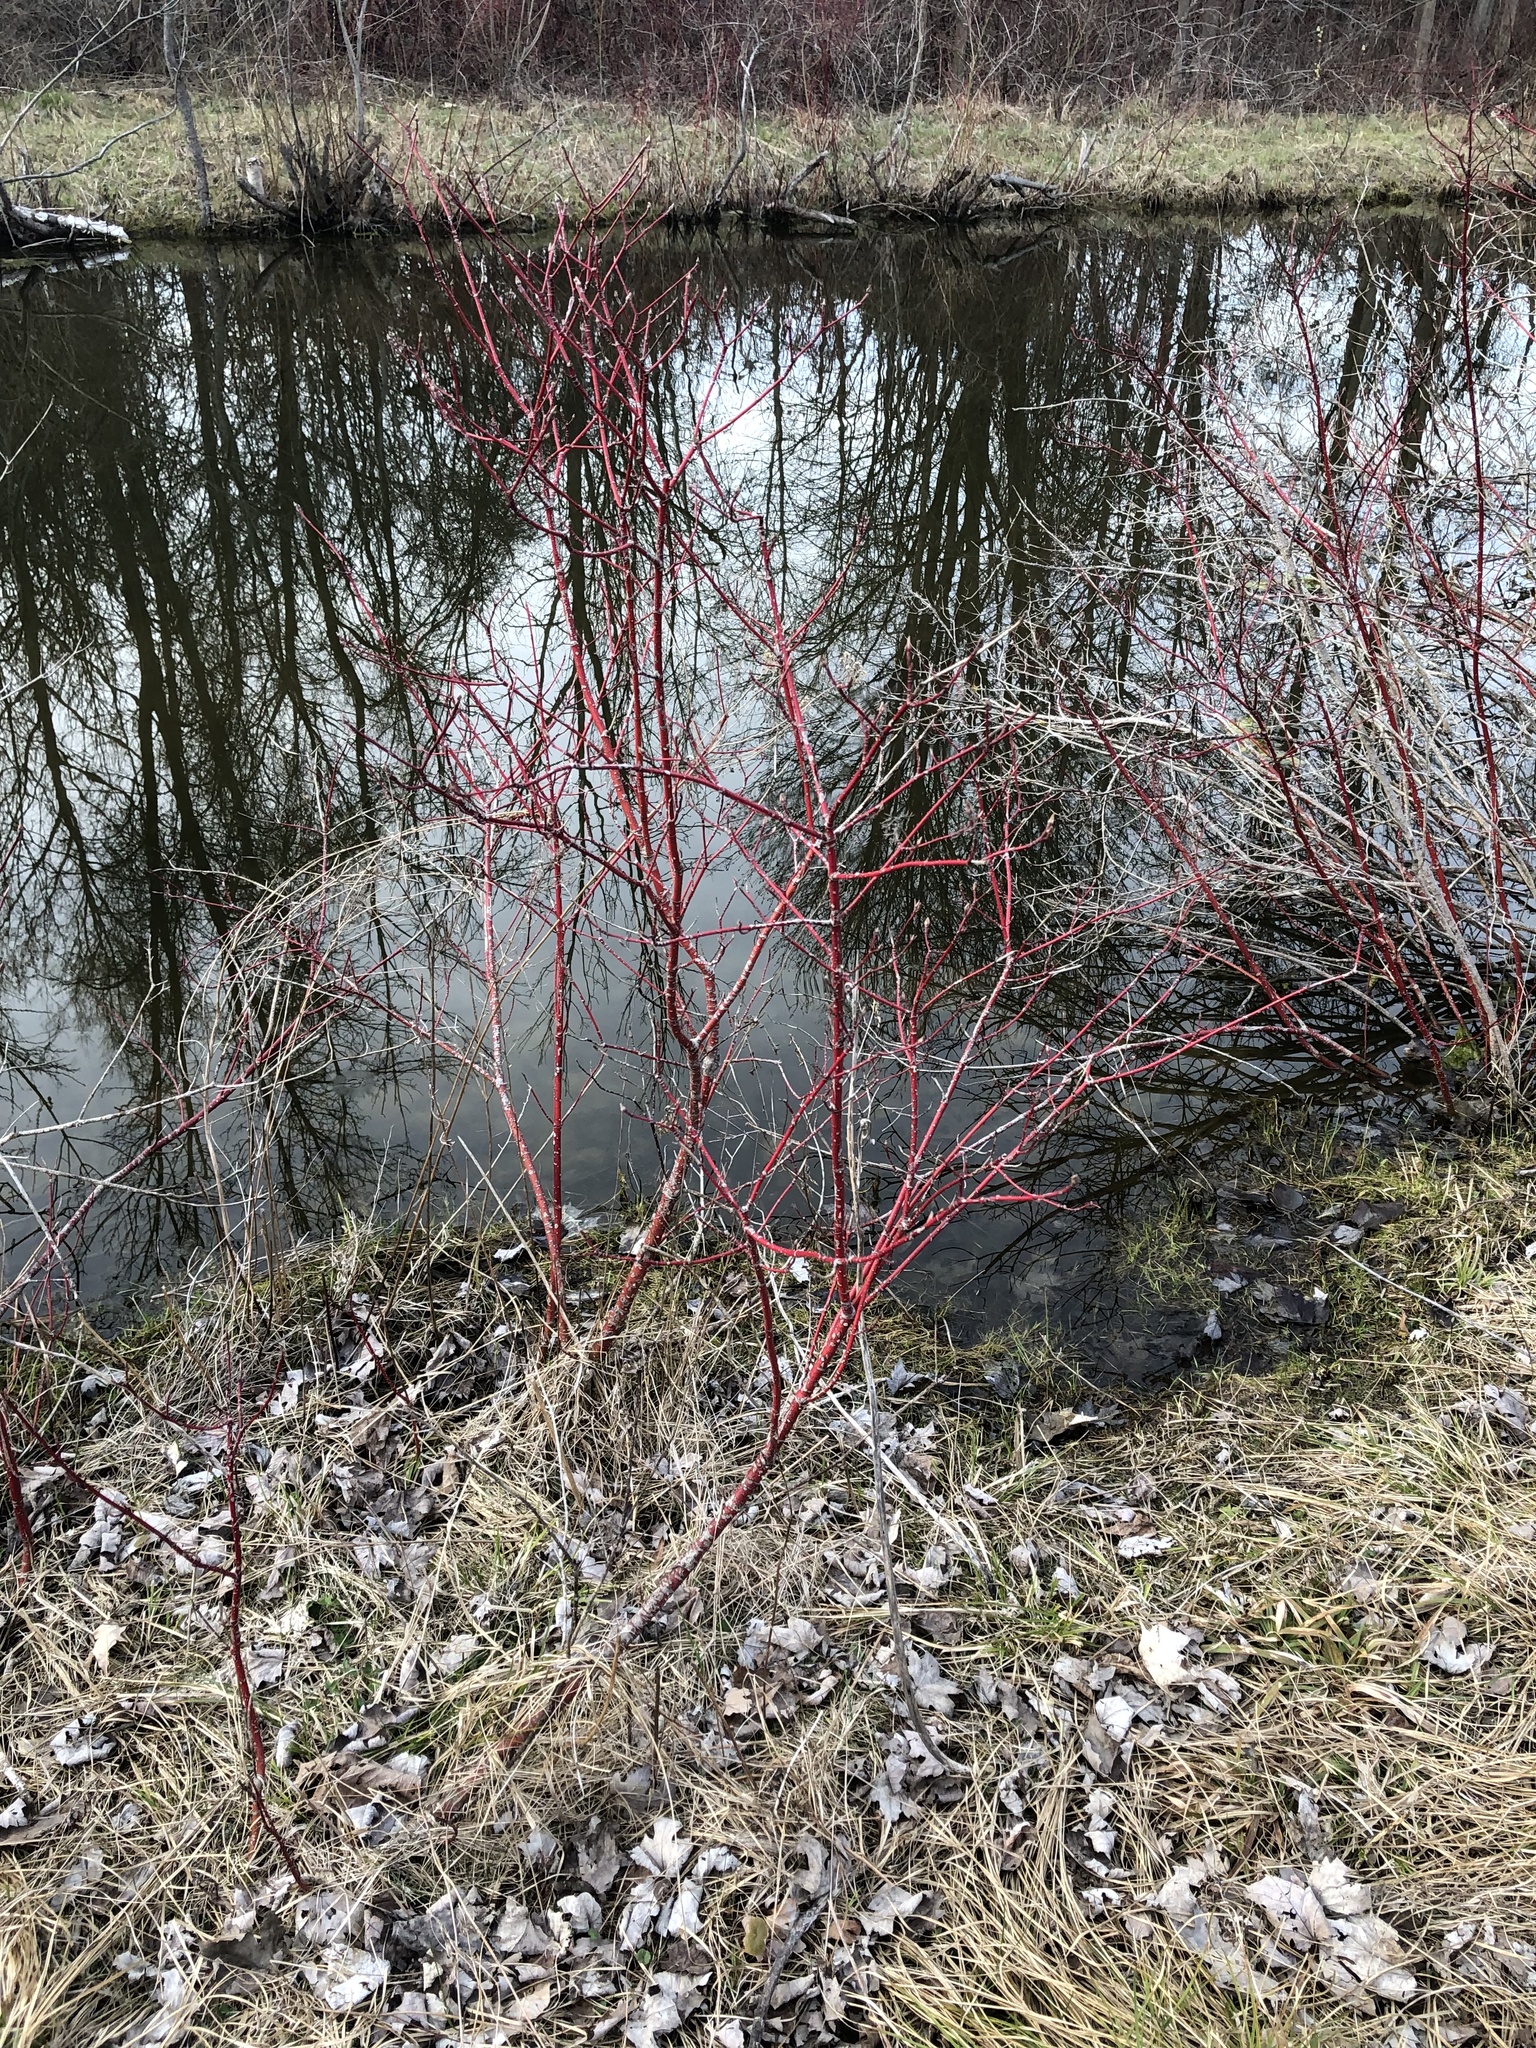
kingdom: Plantae
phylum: Tracheophyta
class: Magnoliopsida
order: Cornales
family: Cornaceae
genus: Cornus
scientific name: Cornus sericea
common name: Red-osier dogwood
